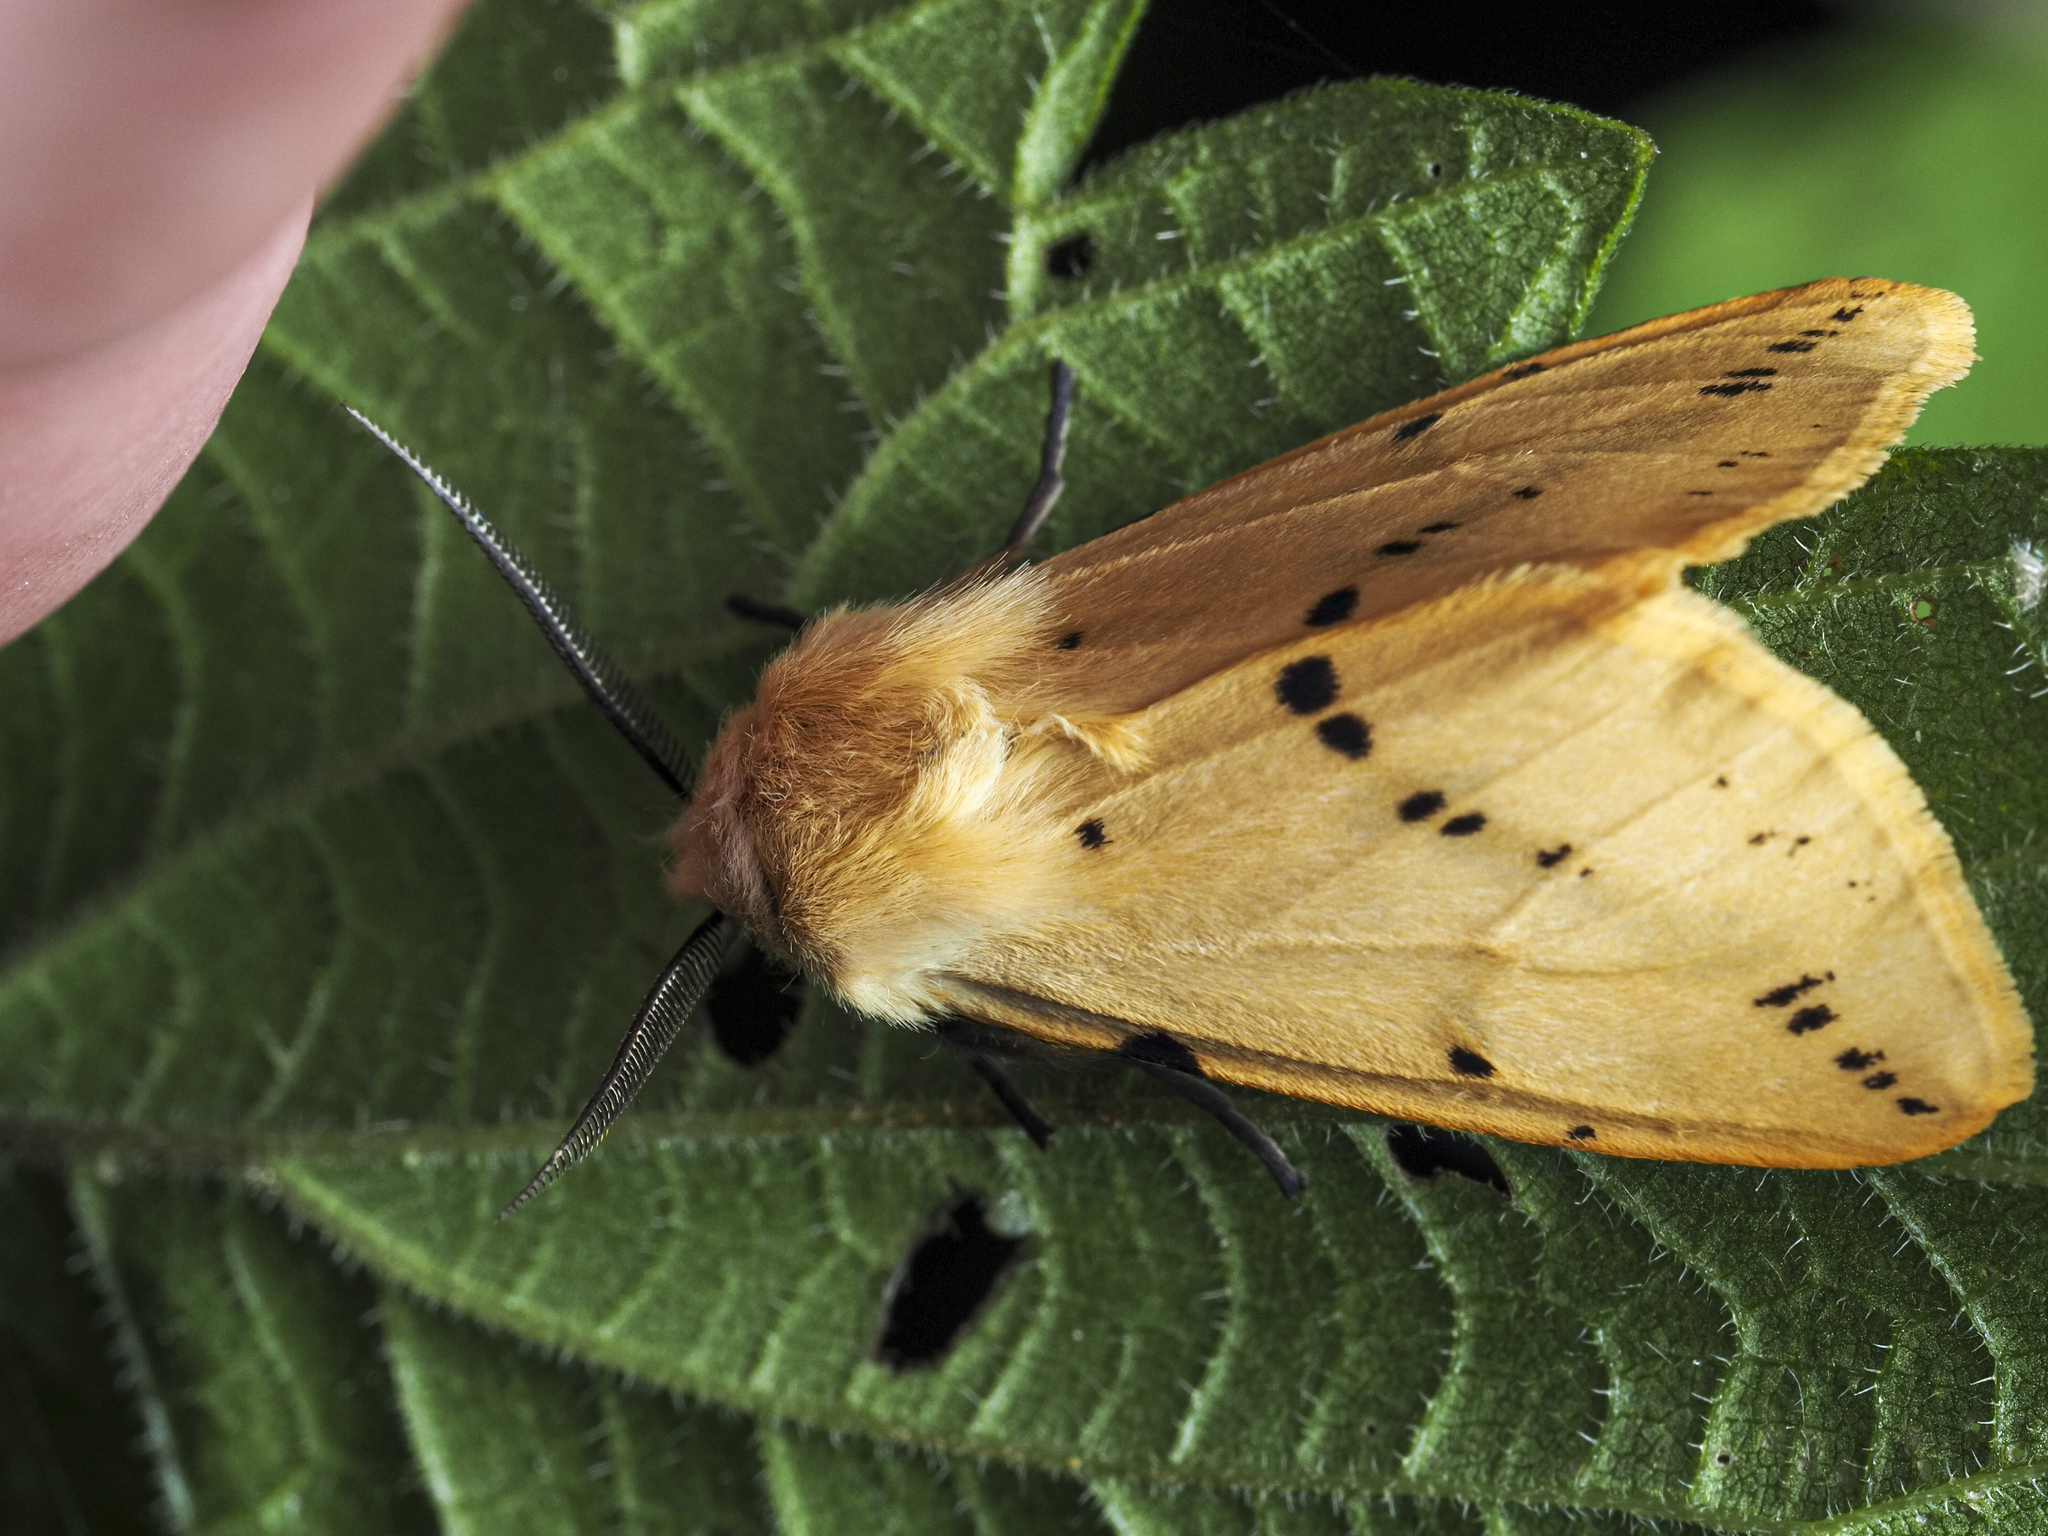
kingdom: Animalia
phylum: Arthropoda
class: Insecta
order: Lepidoptera
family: Erebidae
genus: Spilarctia
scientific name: Spilarctia lutea
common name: Buff ermine
